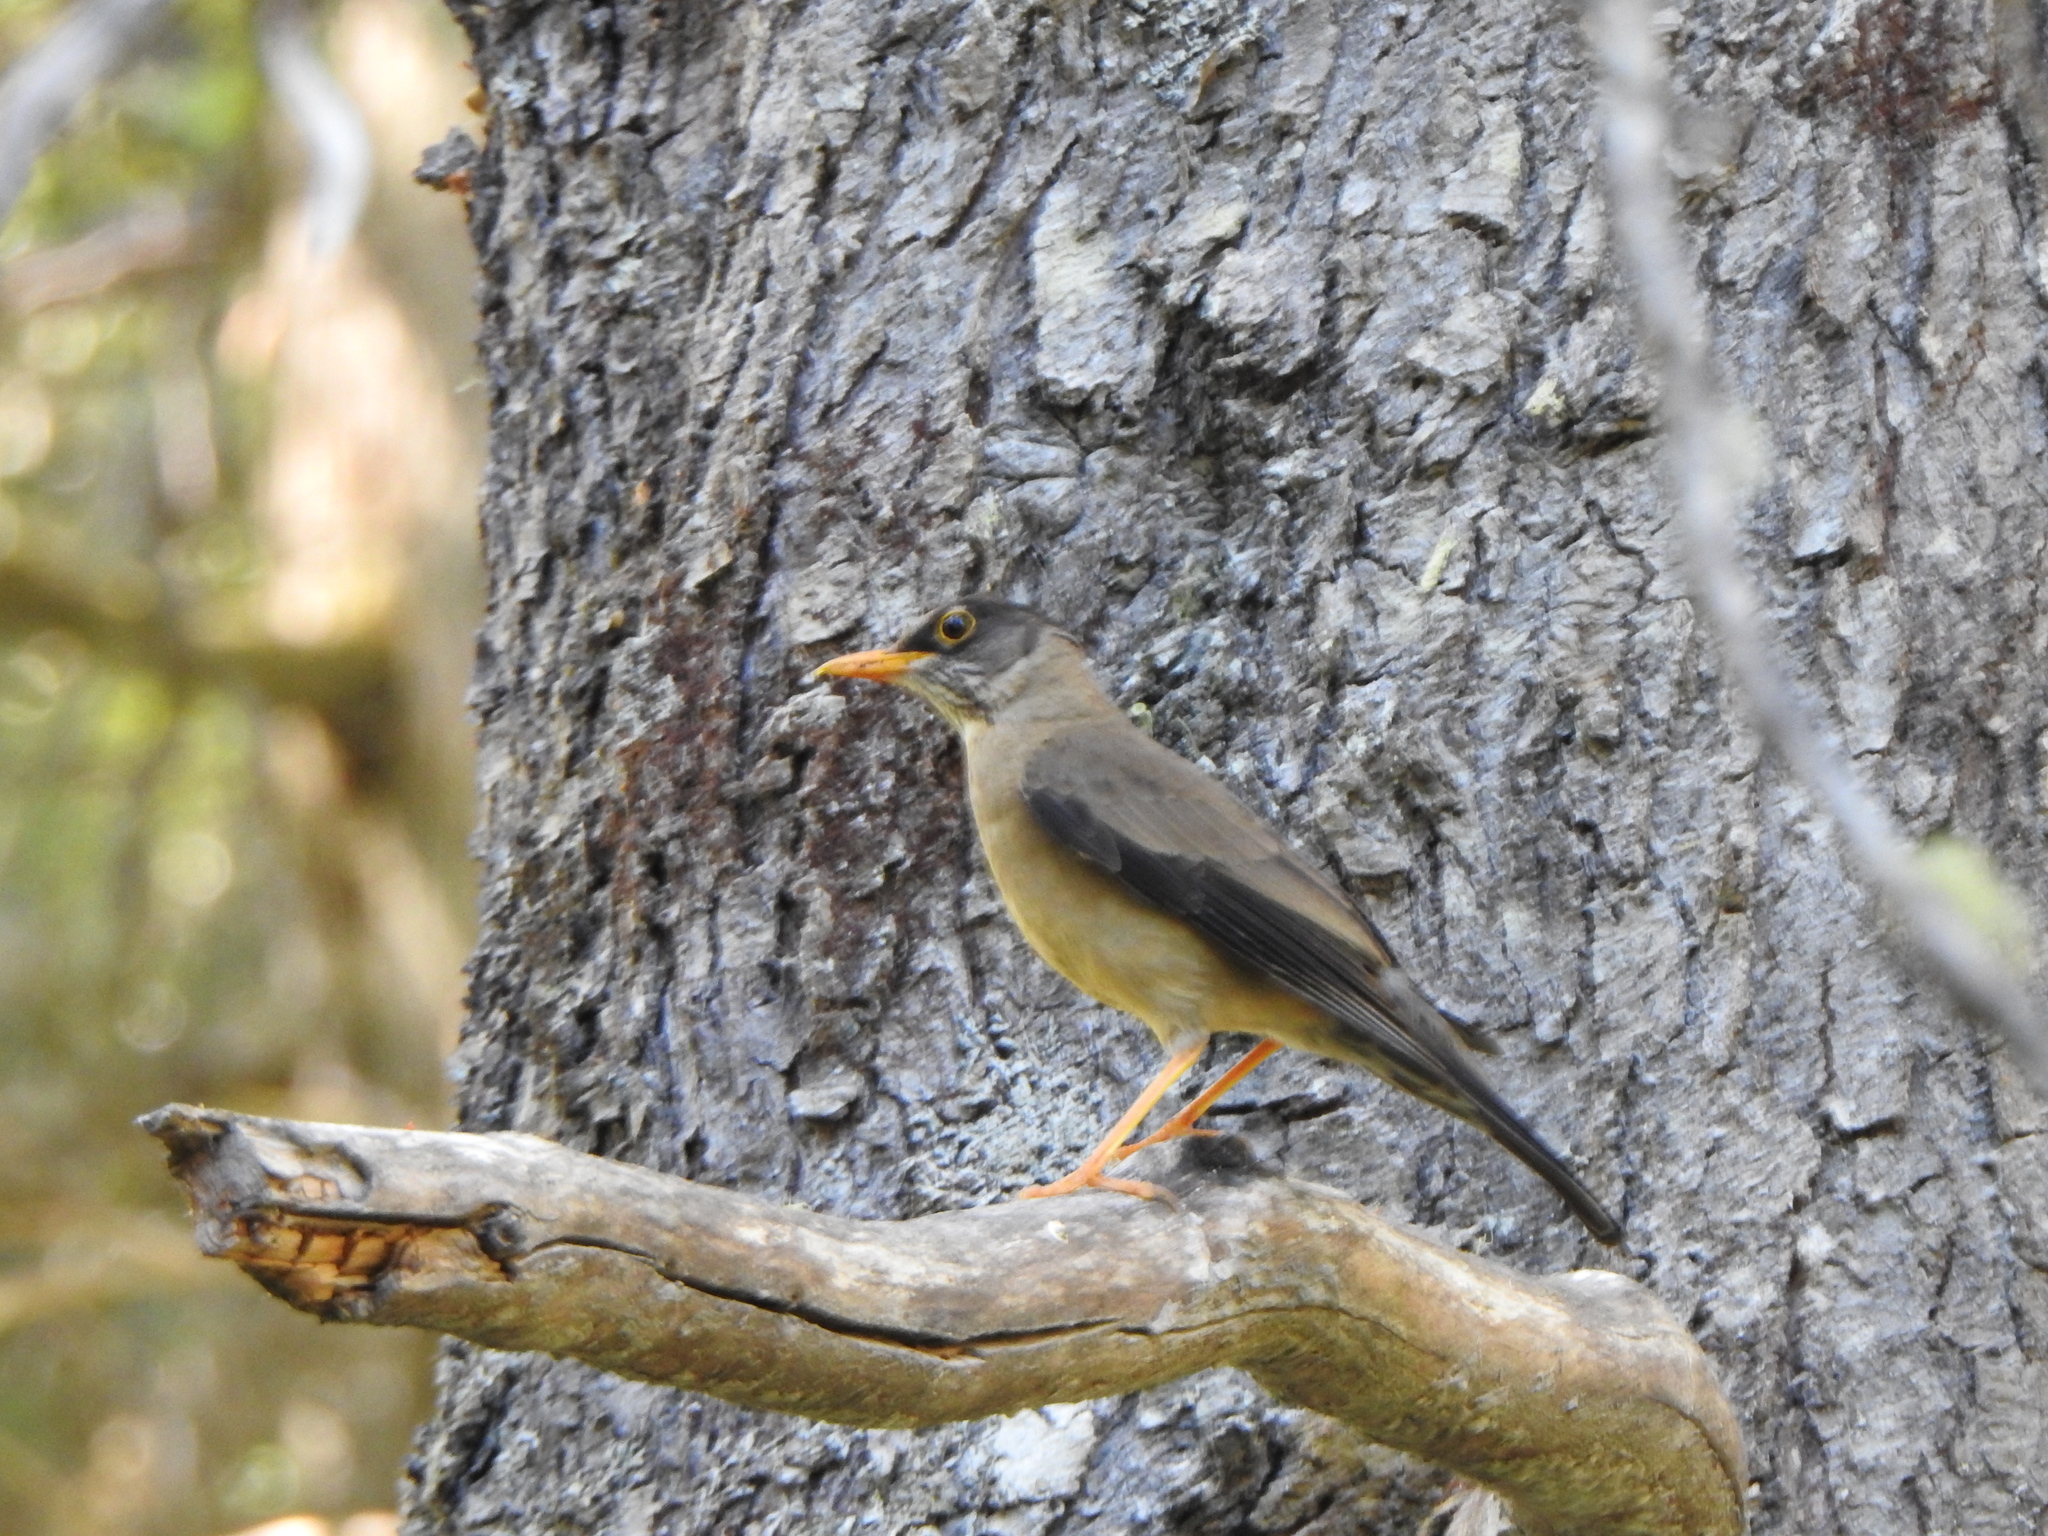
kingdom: Animalia
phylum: Chordata
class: Aves
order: Passeriformes
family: Turdidae
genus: Turdus
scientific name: Turdus falcklandii
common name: Austral thrush
